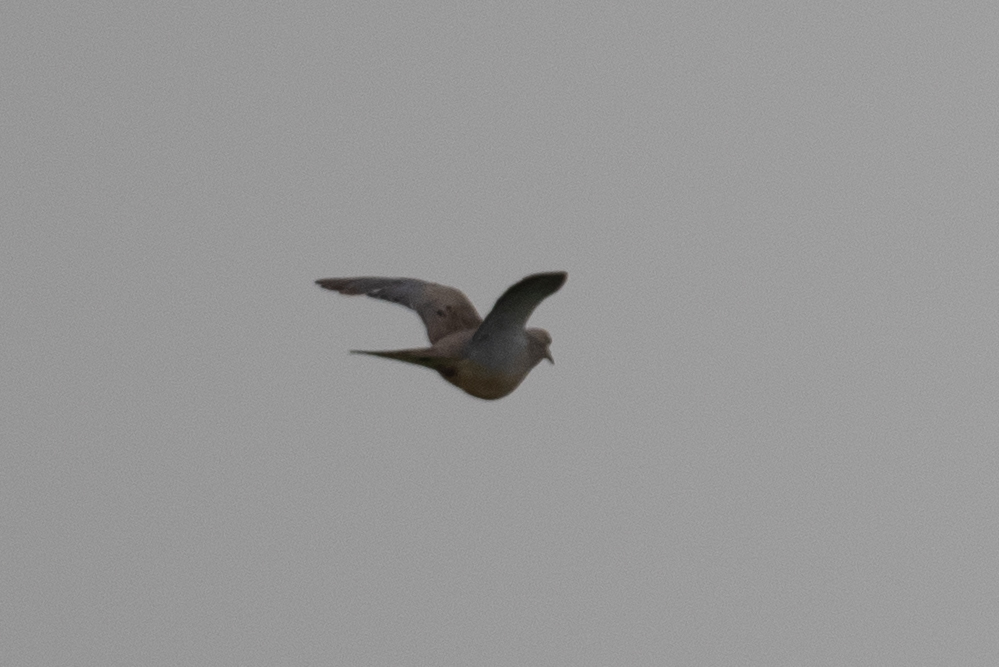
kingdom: Animalia
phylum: Chordata
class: Aves
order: Columbiformes
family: Columbidae
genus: Zenaida
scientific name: Zenaida macroura
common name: Mourning dove
